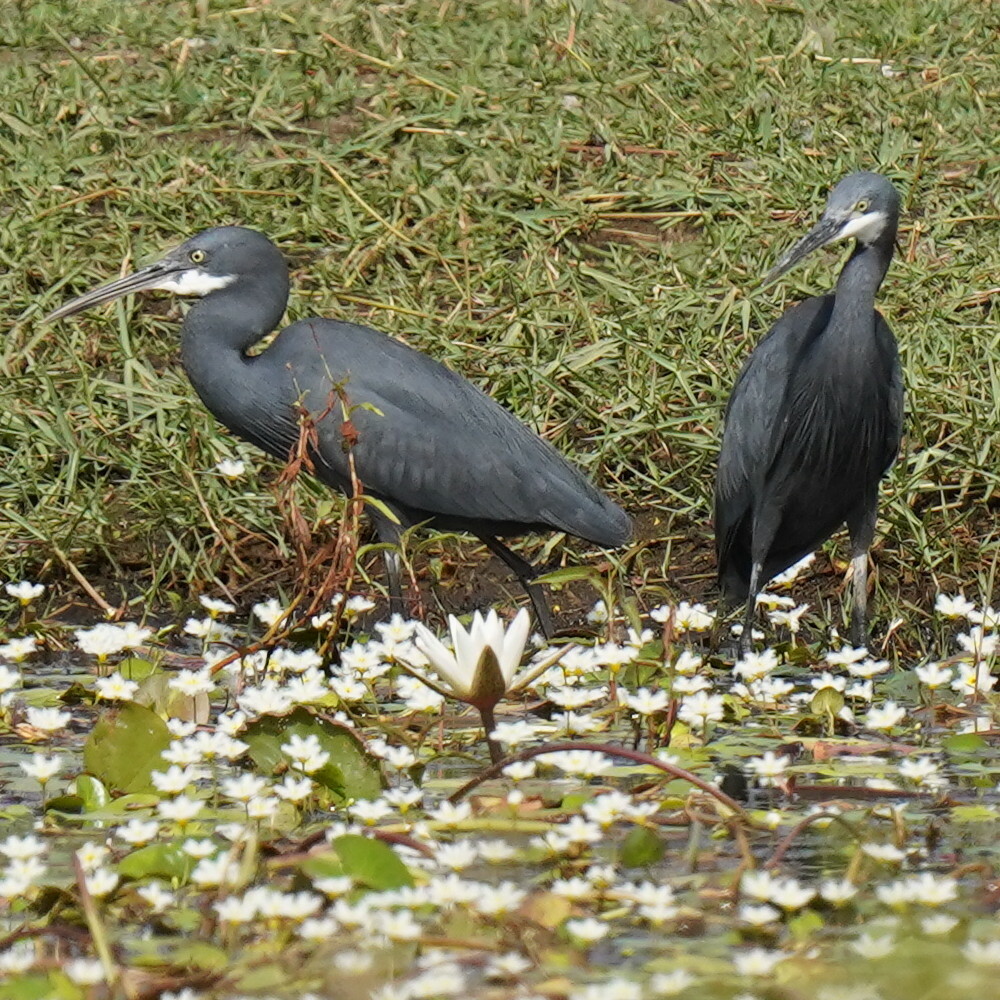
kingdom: Animalia
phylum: Chordata
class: Aves
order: Pelecaniformes
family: Ardeidae
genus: Egretta
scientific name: Egretta gularis
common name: Western reef-heron
